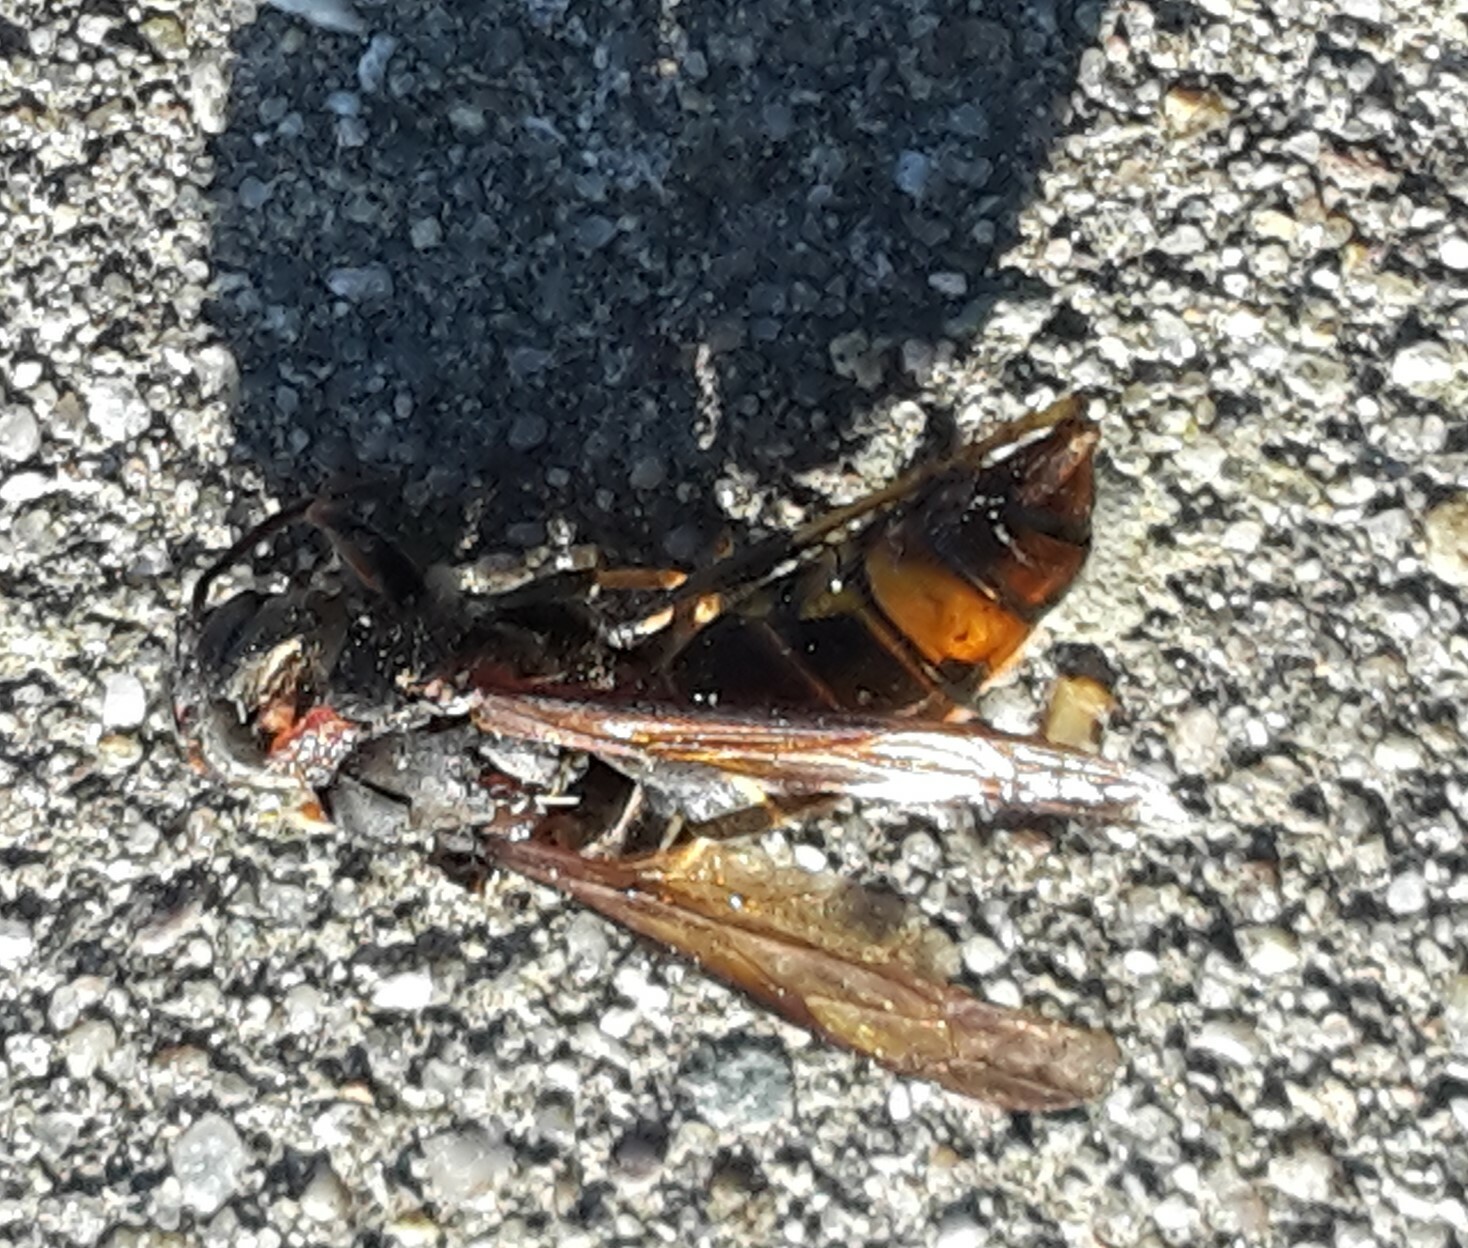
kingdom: Animalia
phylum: Arthropoda
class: Insecta
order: Hymenoptera
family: Vespidae
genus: Vespa
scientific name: Vespa velutina
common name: Asian hornet
